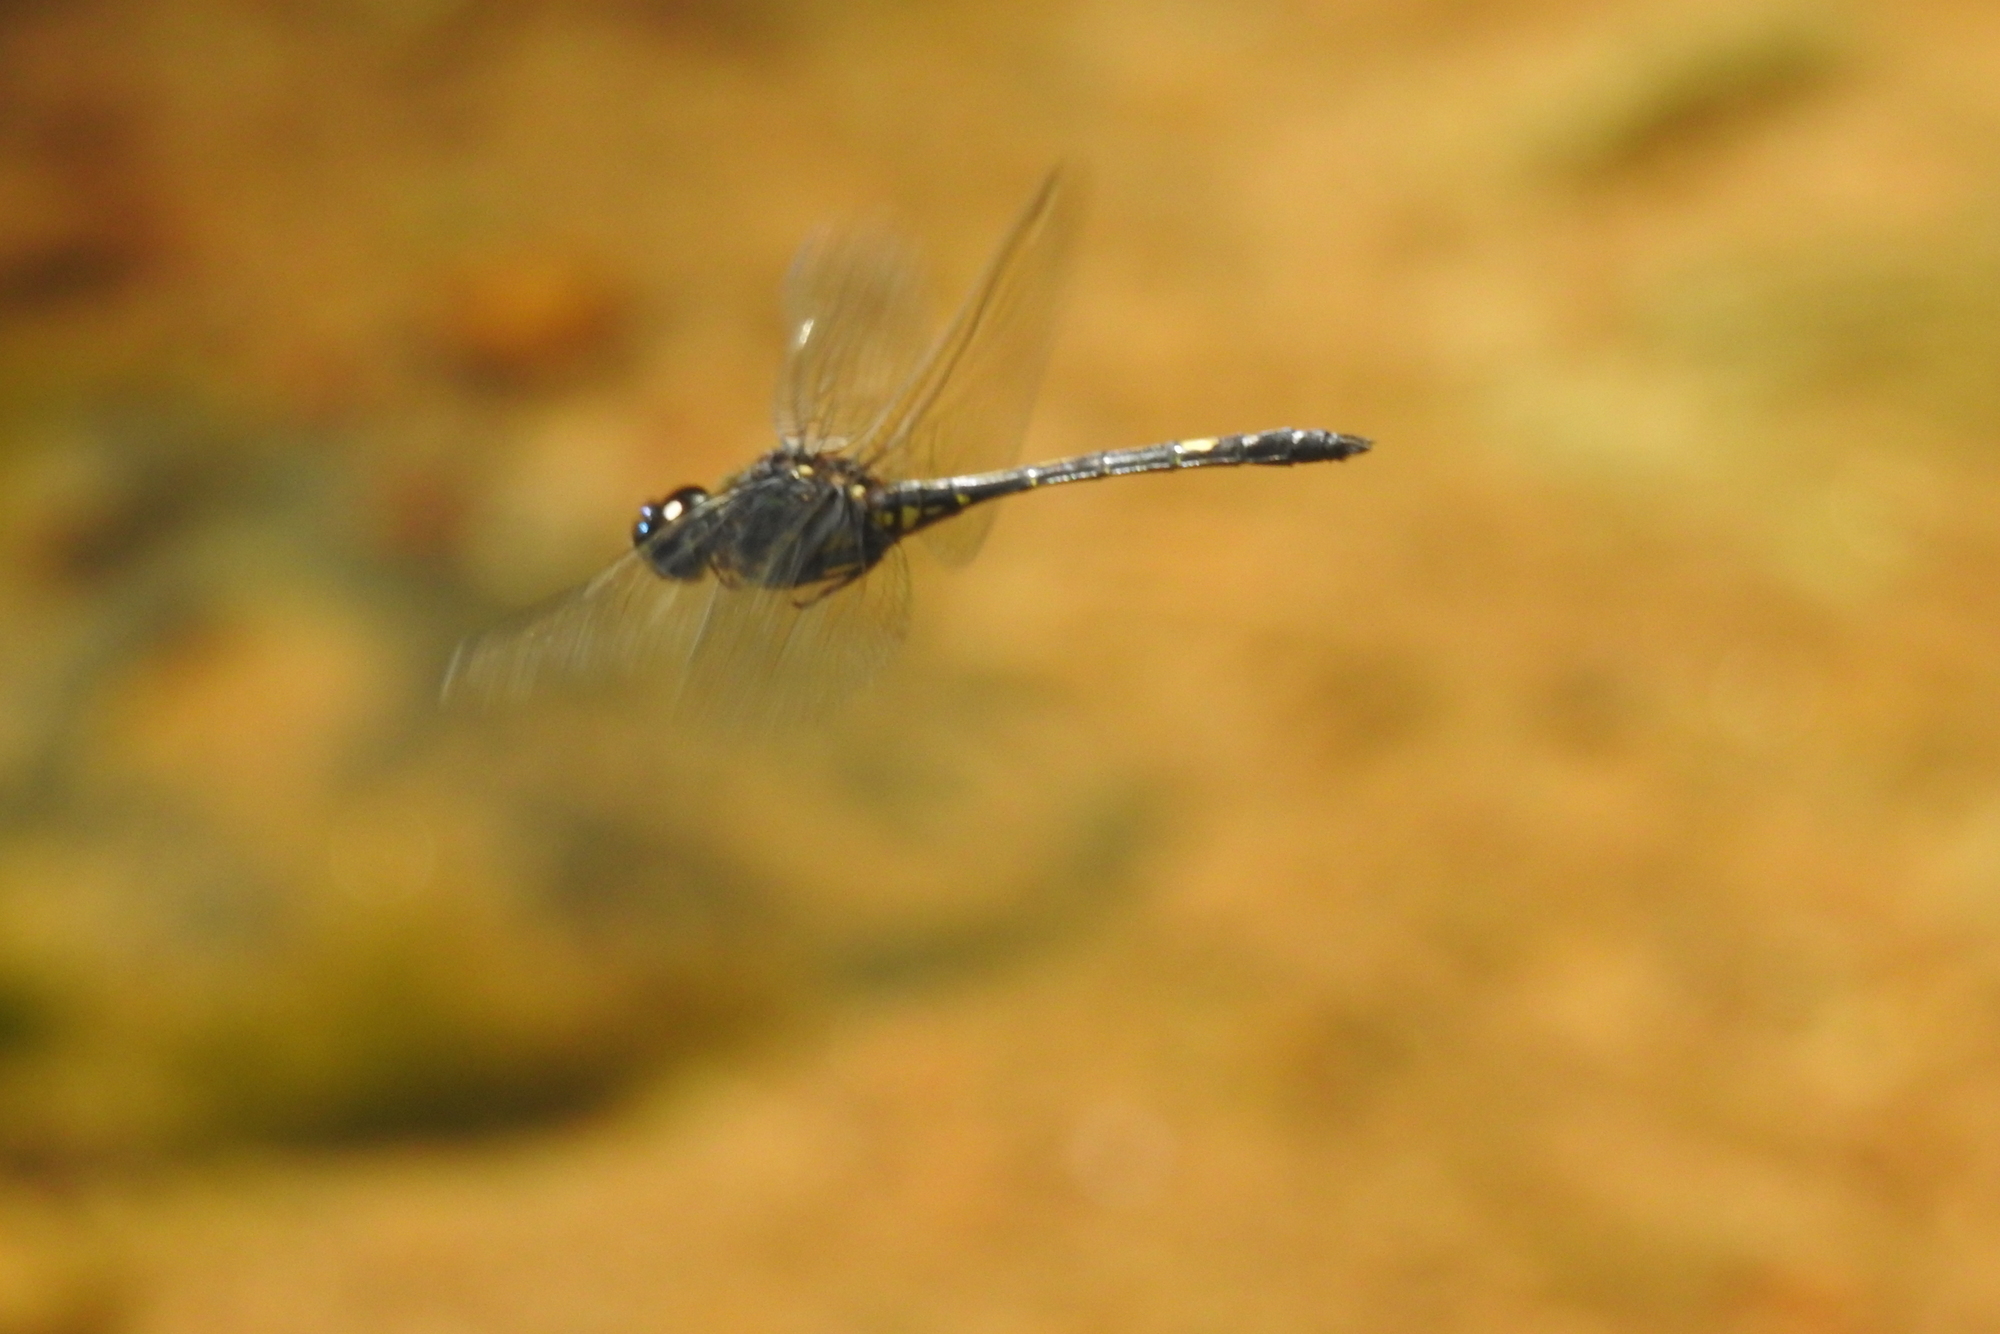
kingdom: Animalia
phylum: Arthropoda
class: Insecta
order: Odonata
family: Libellulidae
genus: Zygonyx
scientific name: Zygonyx iris
